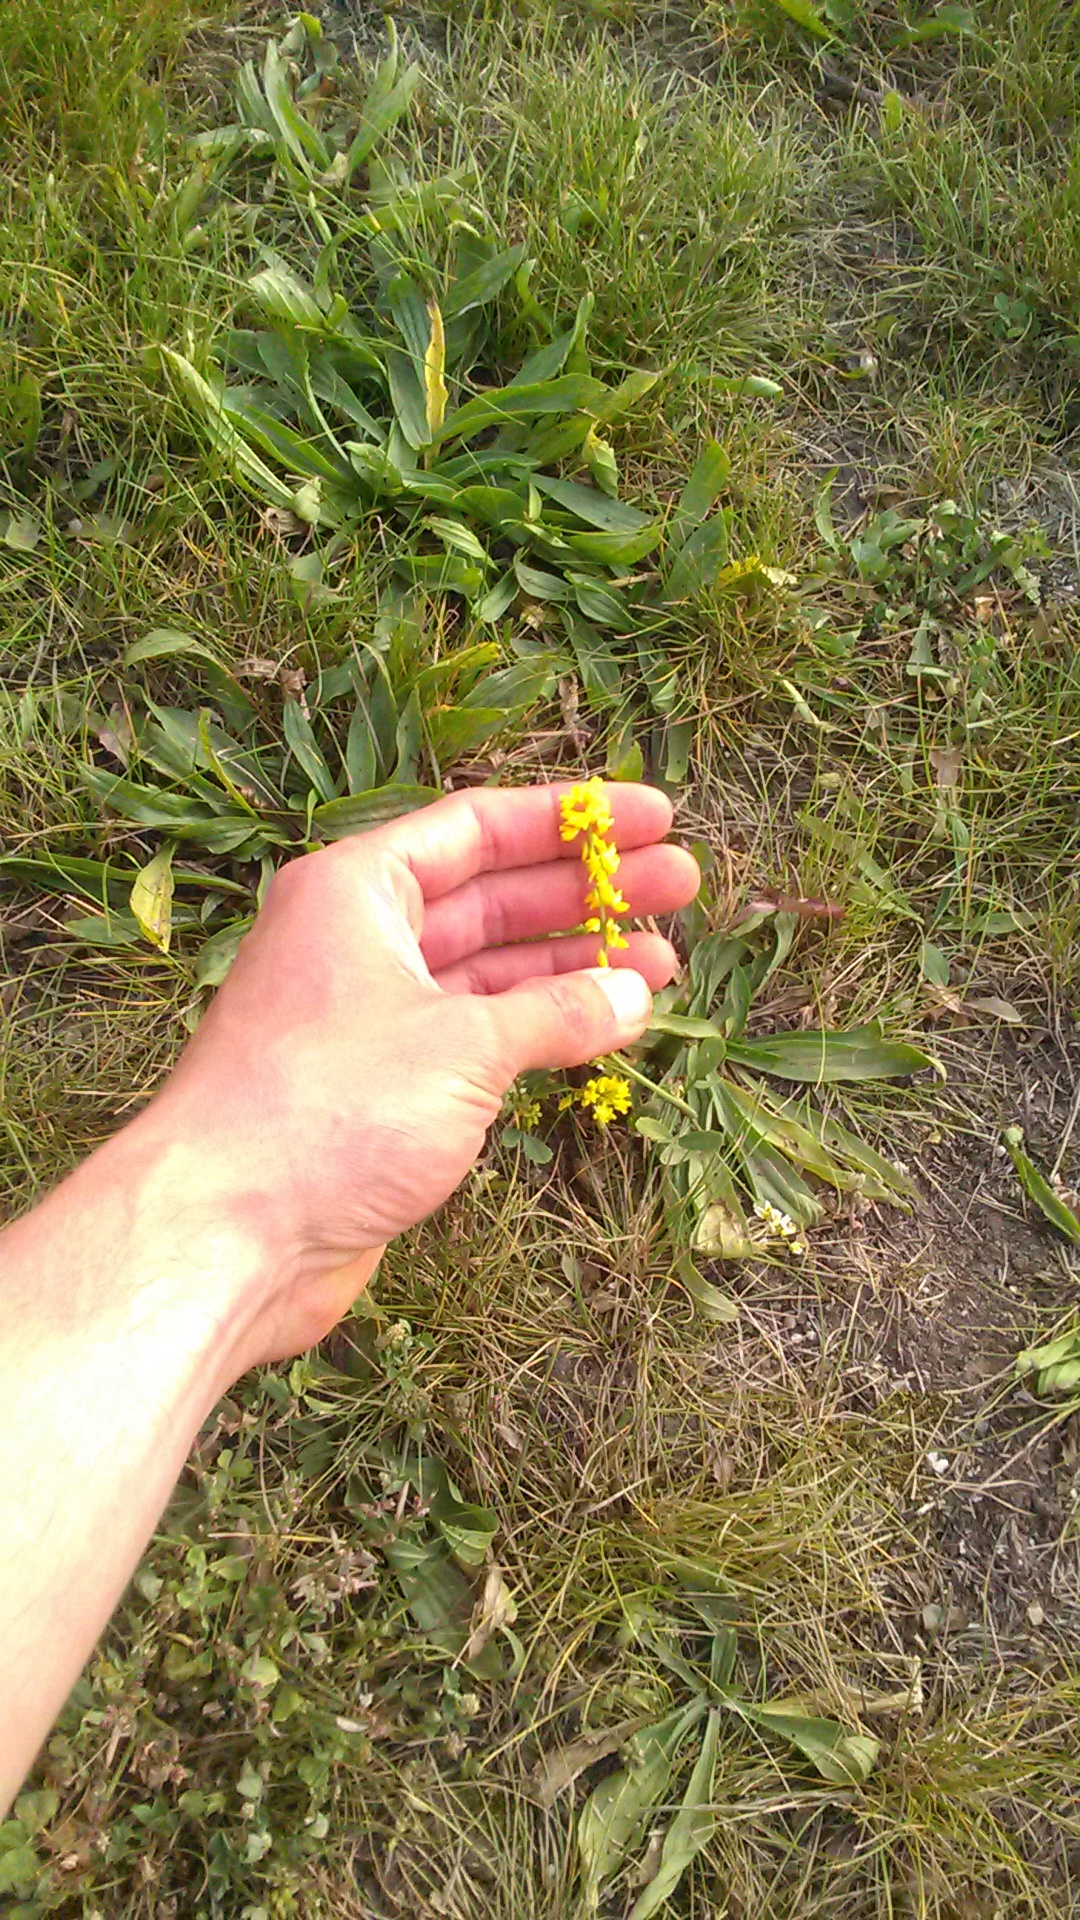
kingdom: Plantae
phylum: Tracheophyta
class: Magnoliopsida
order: Fabales
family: Fabaceae
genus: Melilotus
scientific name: Melilotus officinalis
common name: Sweetclover
